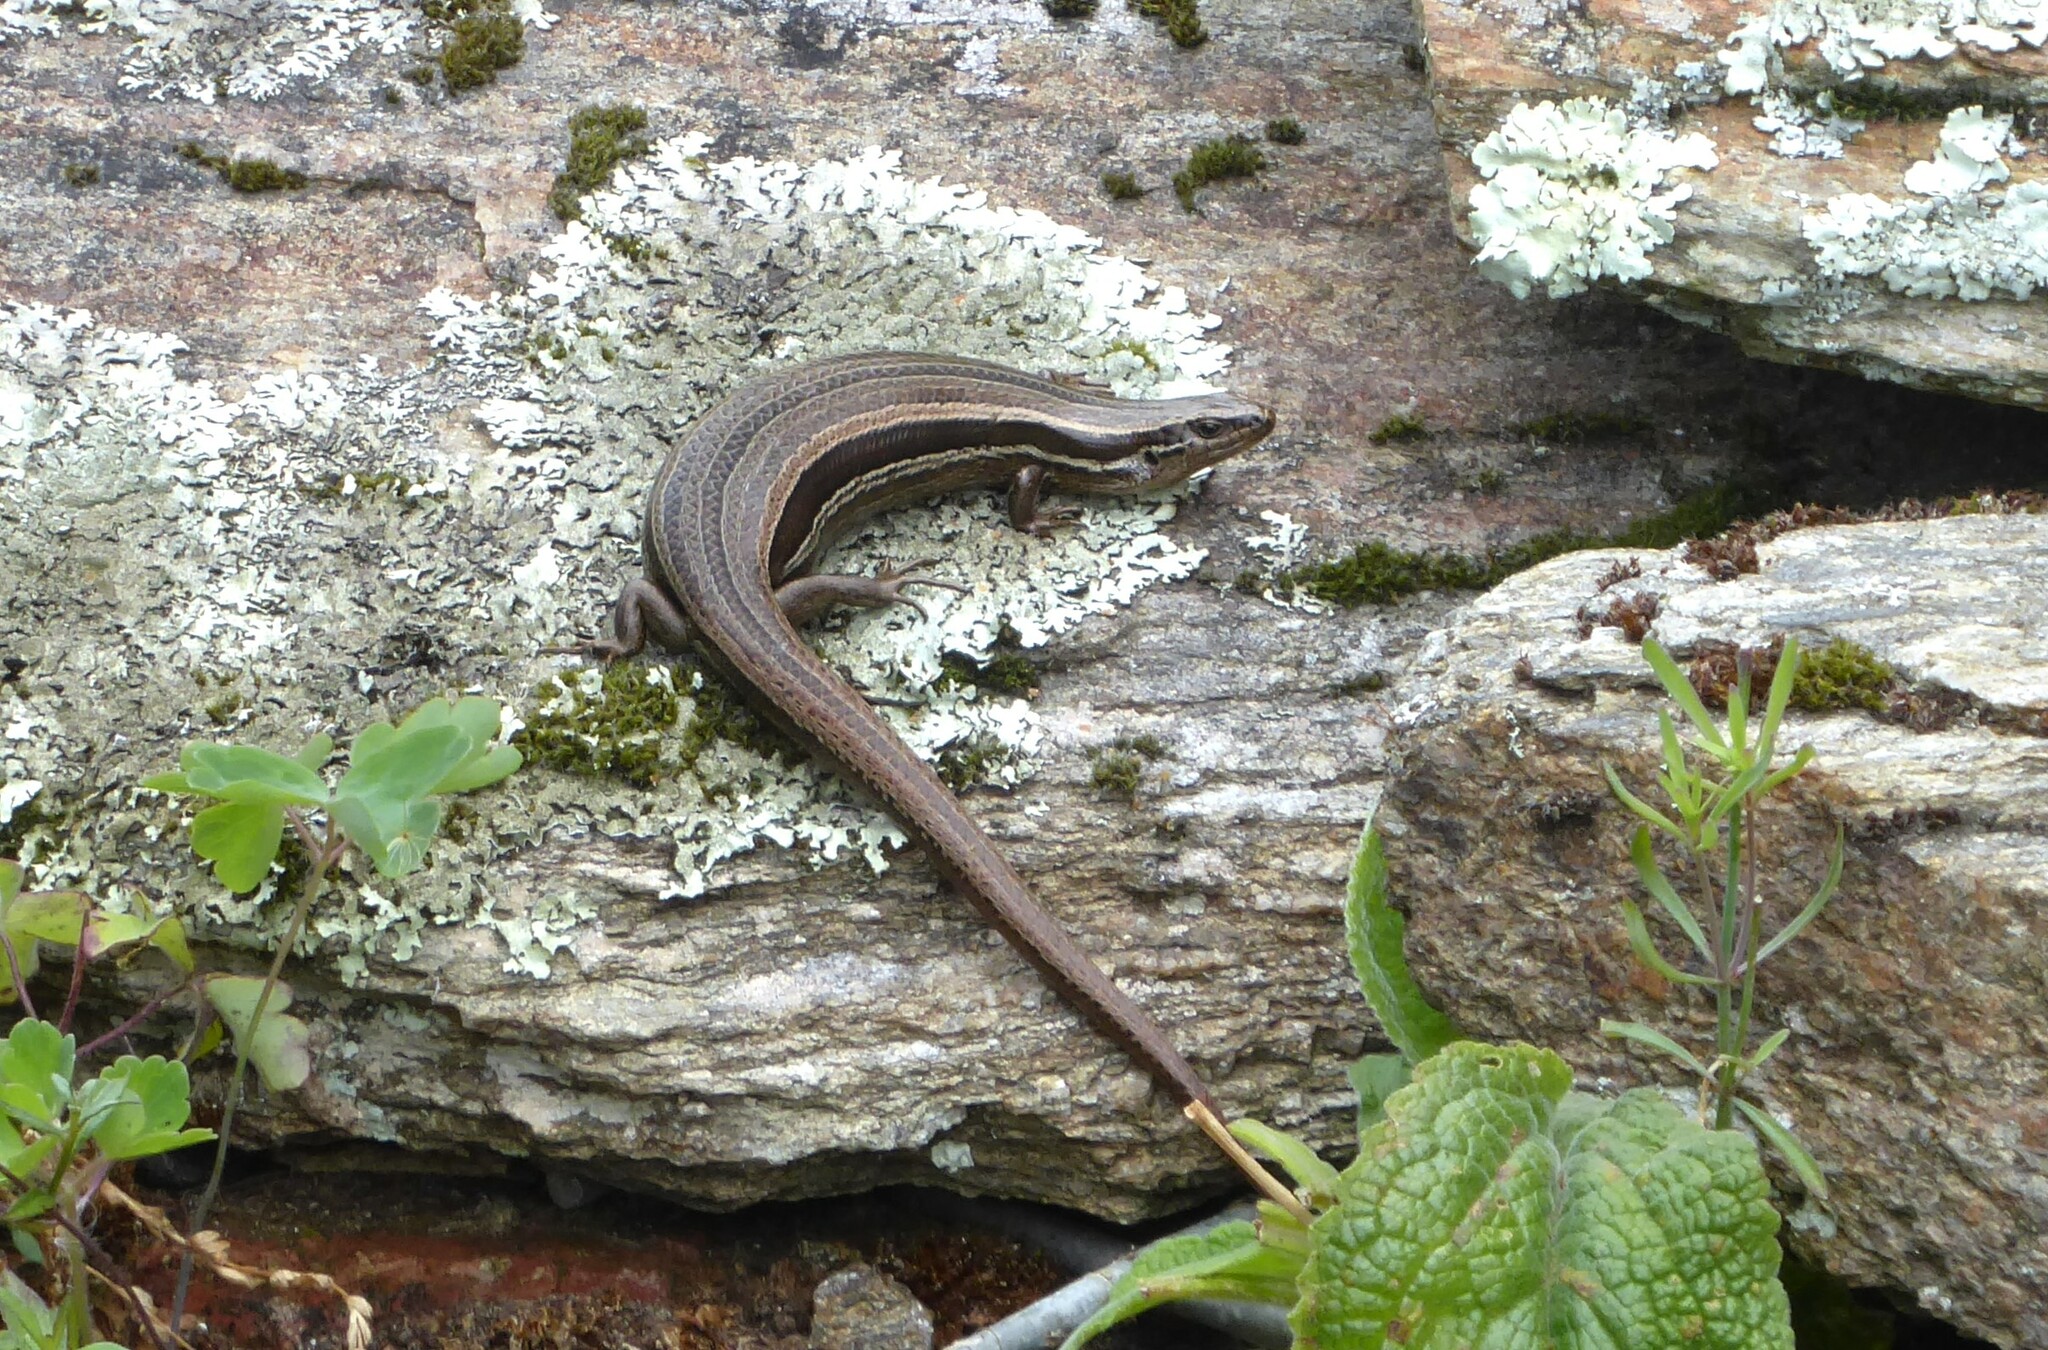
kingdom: Animalia
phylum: Chordata
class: Squamata
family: Scincidae
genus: Oligosoma
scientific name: Oligosoma polychroma
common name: Common new zealand skink
